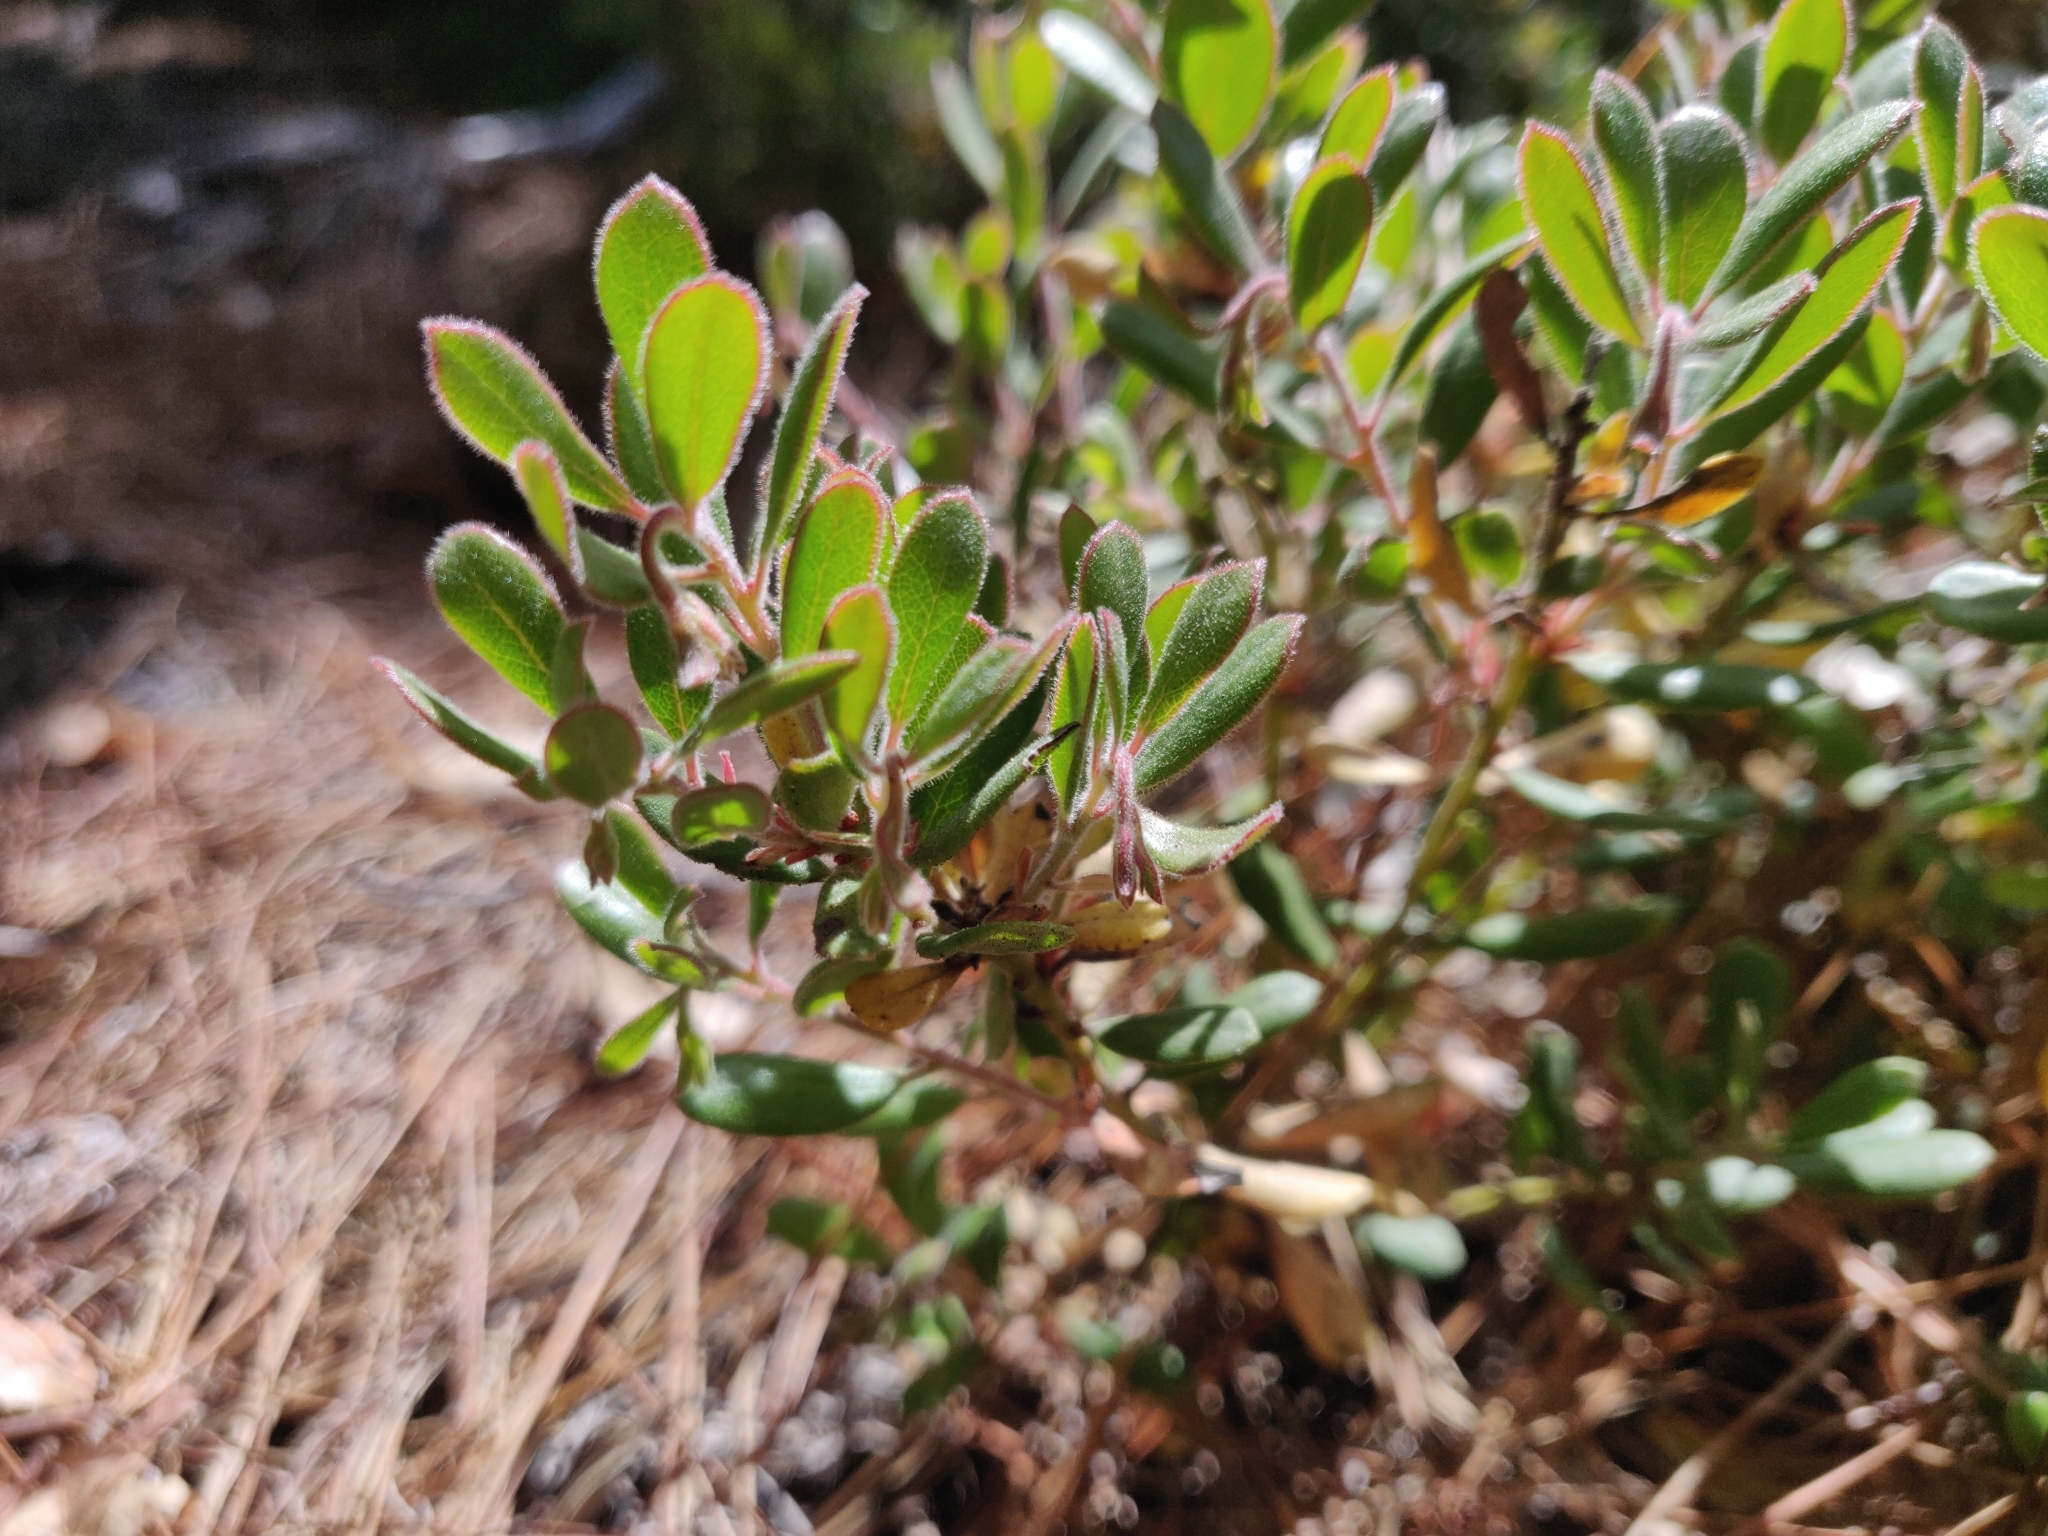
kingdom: Plantae
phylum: Tracheophyta
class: Magnoliopsida
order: Ericales
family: Ericaceae
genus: Arctostaphylos
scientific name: Arctostaphylos pumila
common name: Sandmat manzanita
